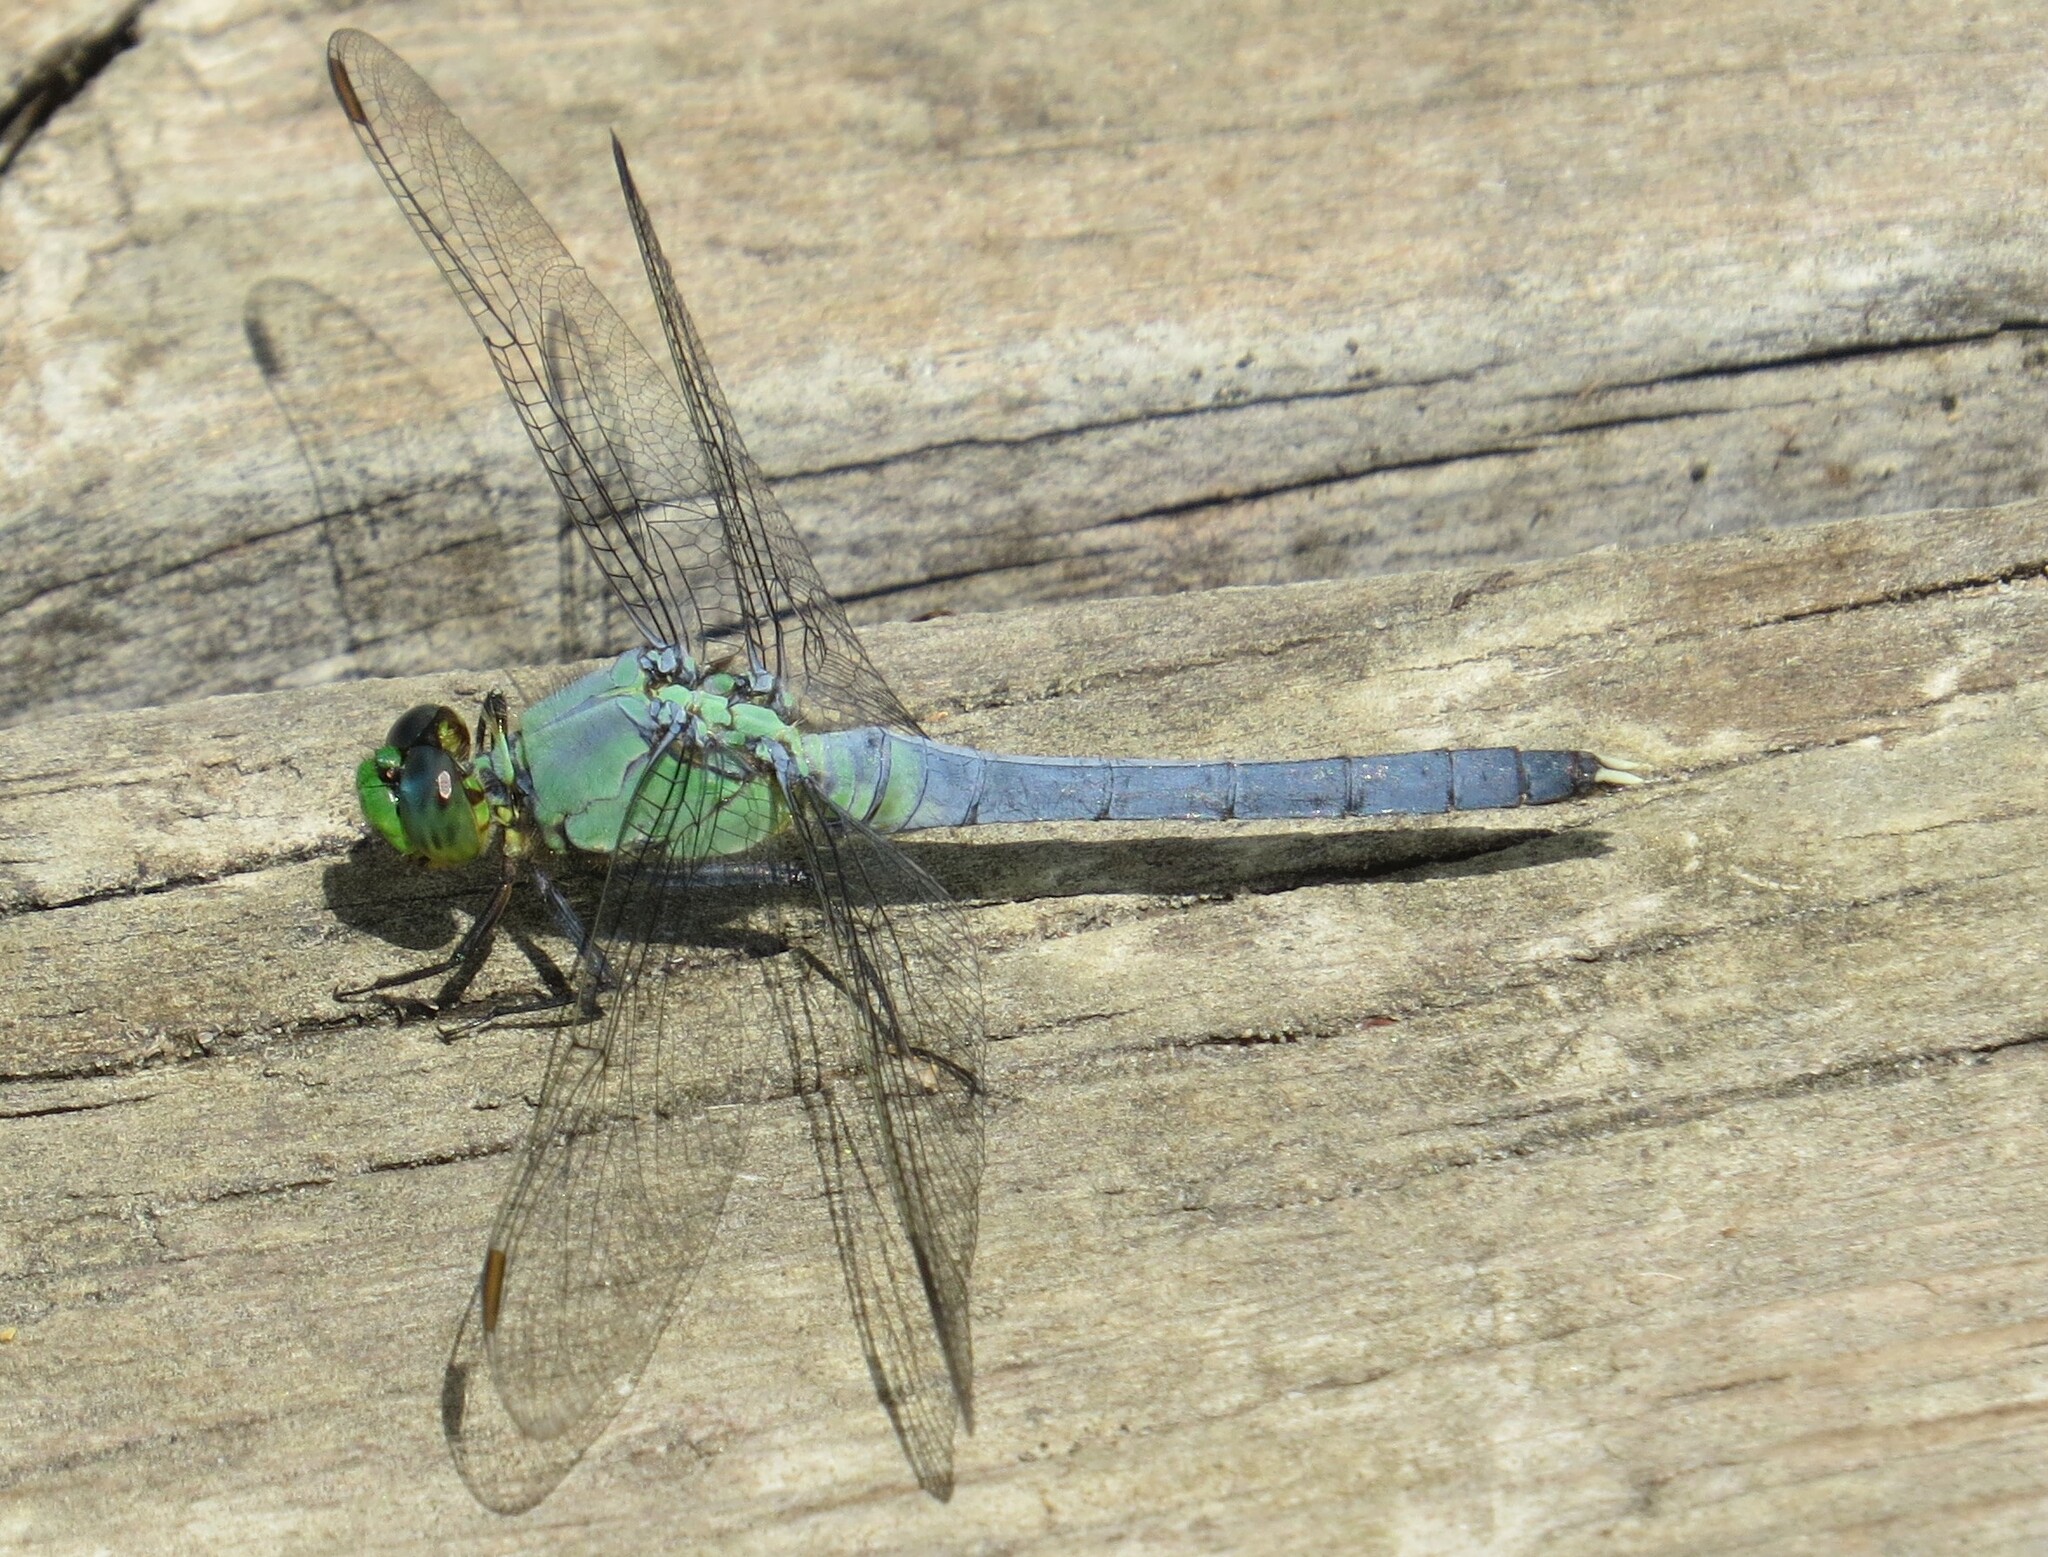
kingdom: Animalia
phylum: Arthropoda
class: Insecta
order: Odonata
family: Libellulidae
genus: Erythemis
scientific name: Erythemis simplicicollis
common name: Eastern pondhawk
